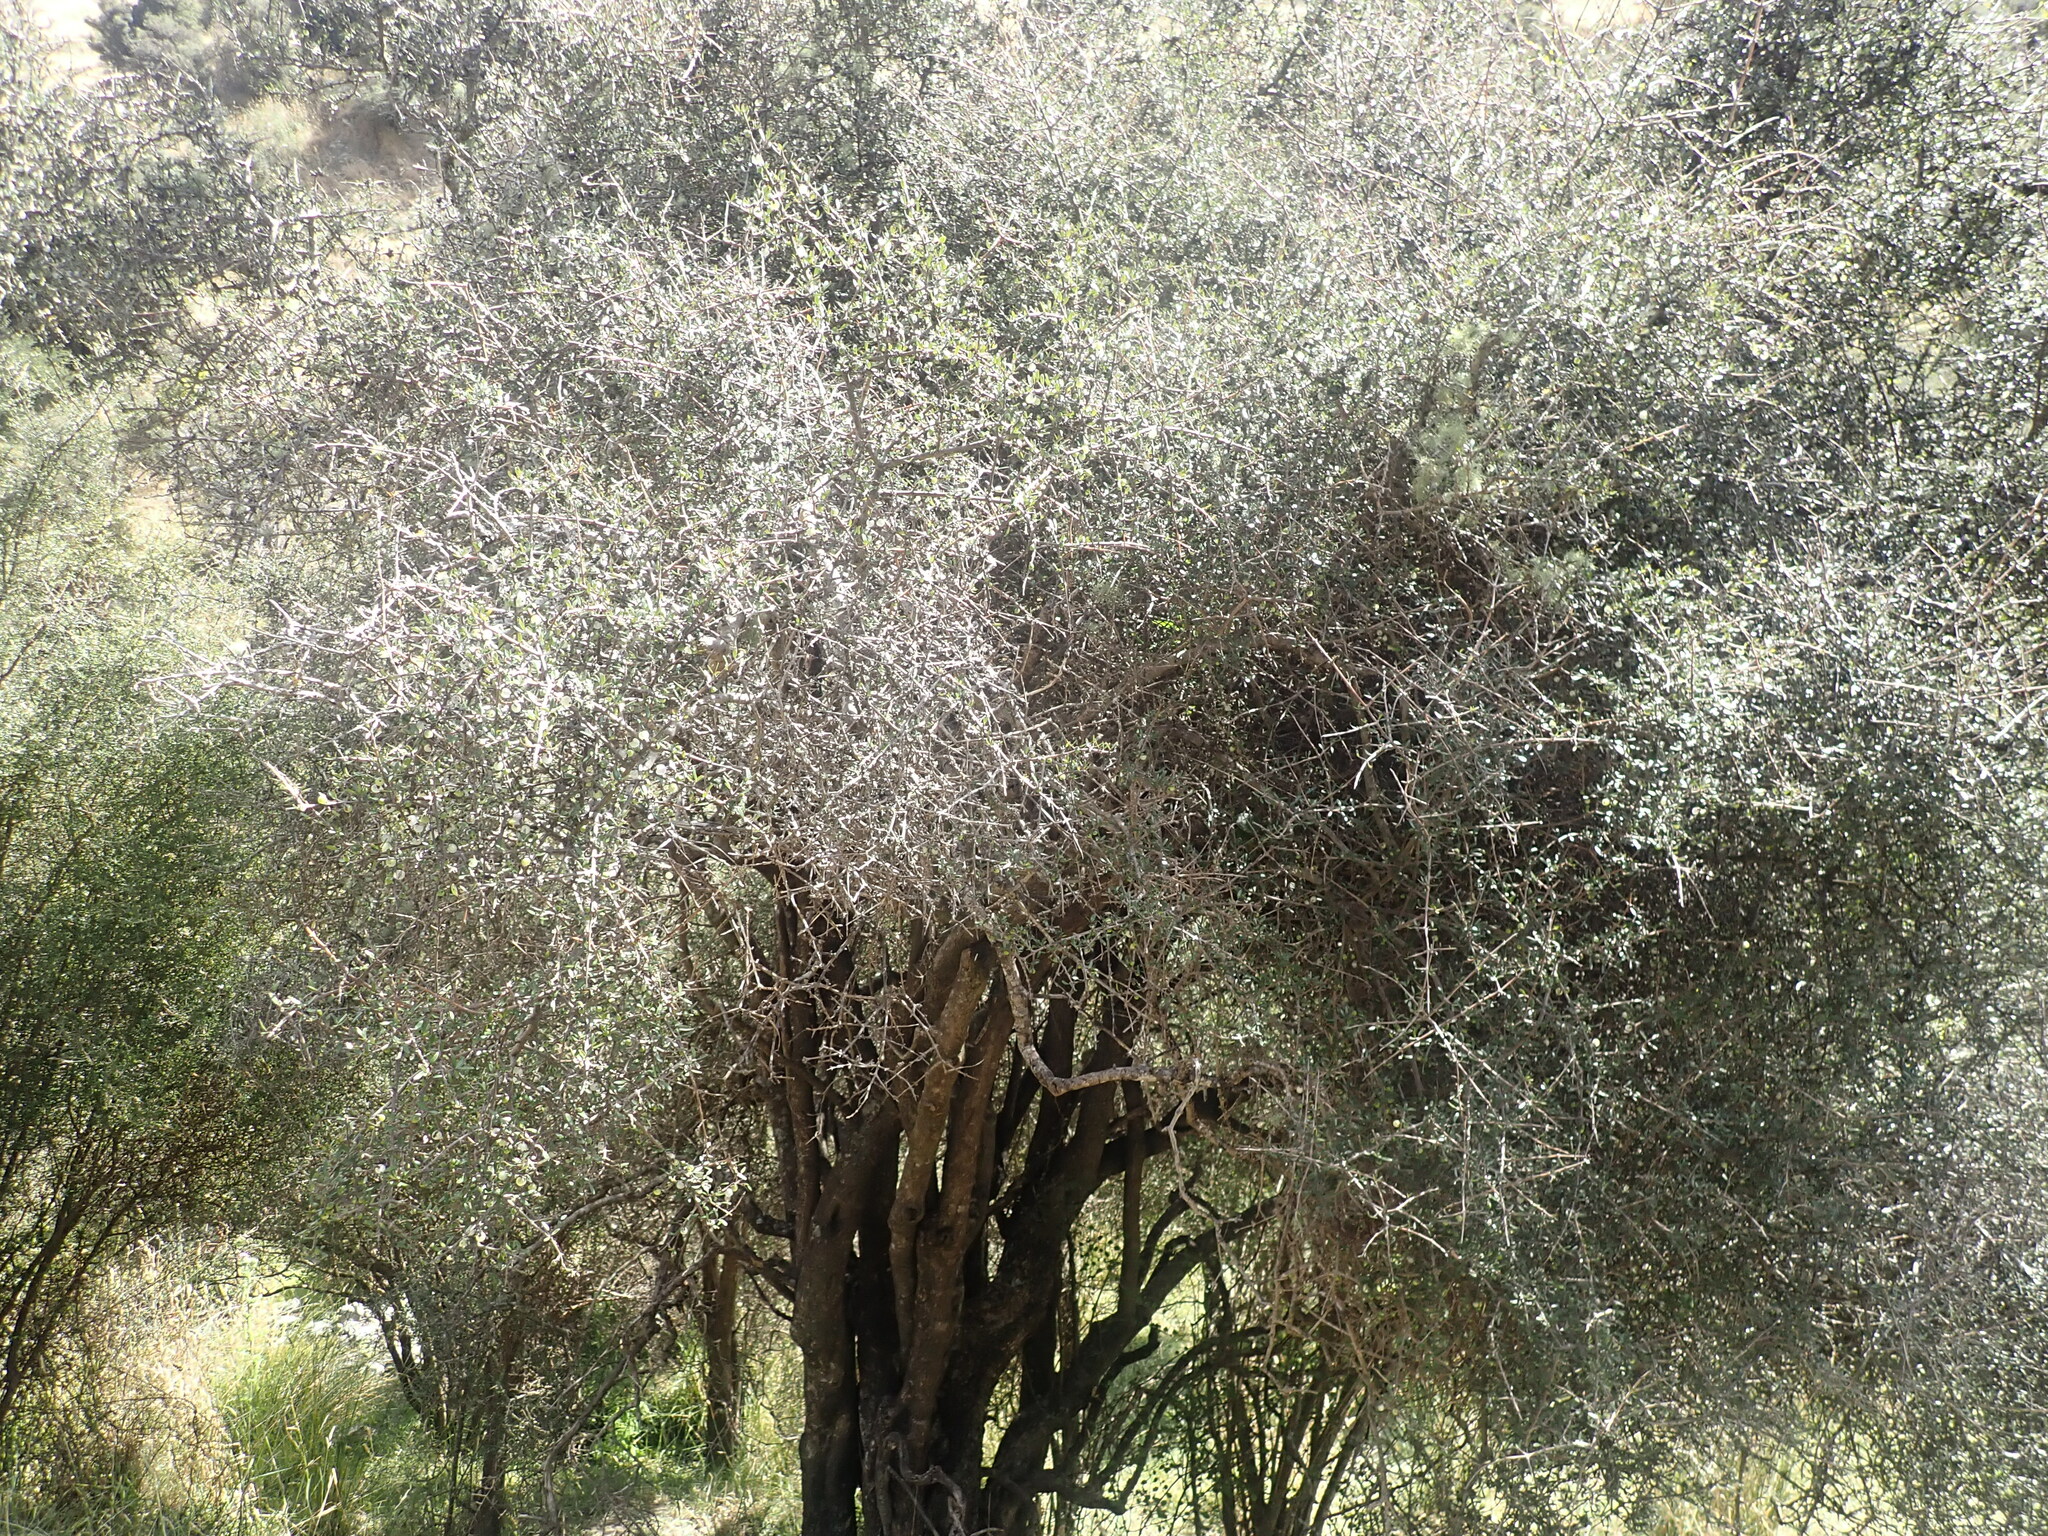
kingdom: Plantae
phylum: Tracheophyta
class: Magnoliopsida
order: Gentianales
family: Rubiaceae
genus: Coprosma
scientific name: Coprosma propinqua
